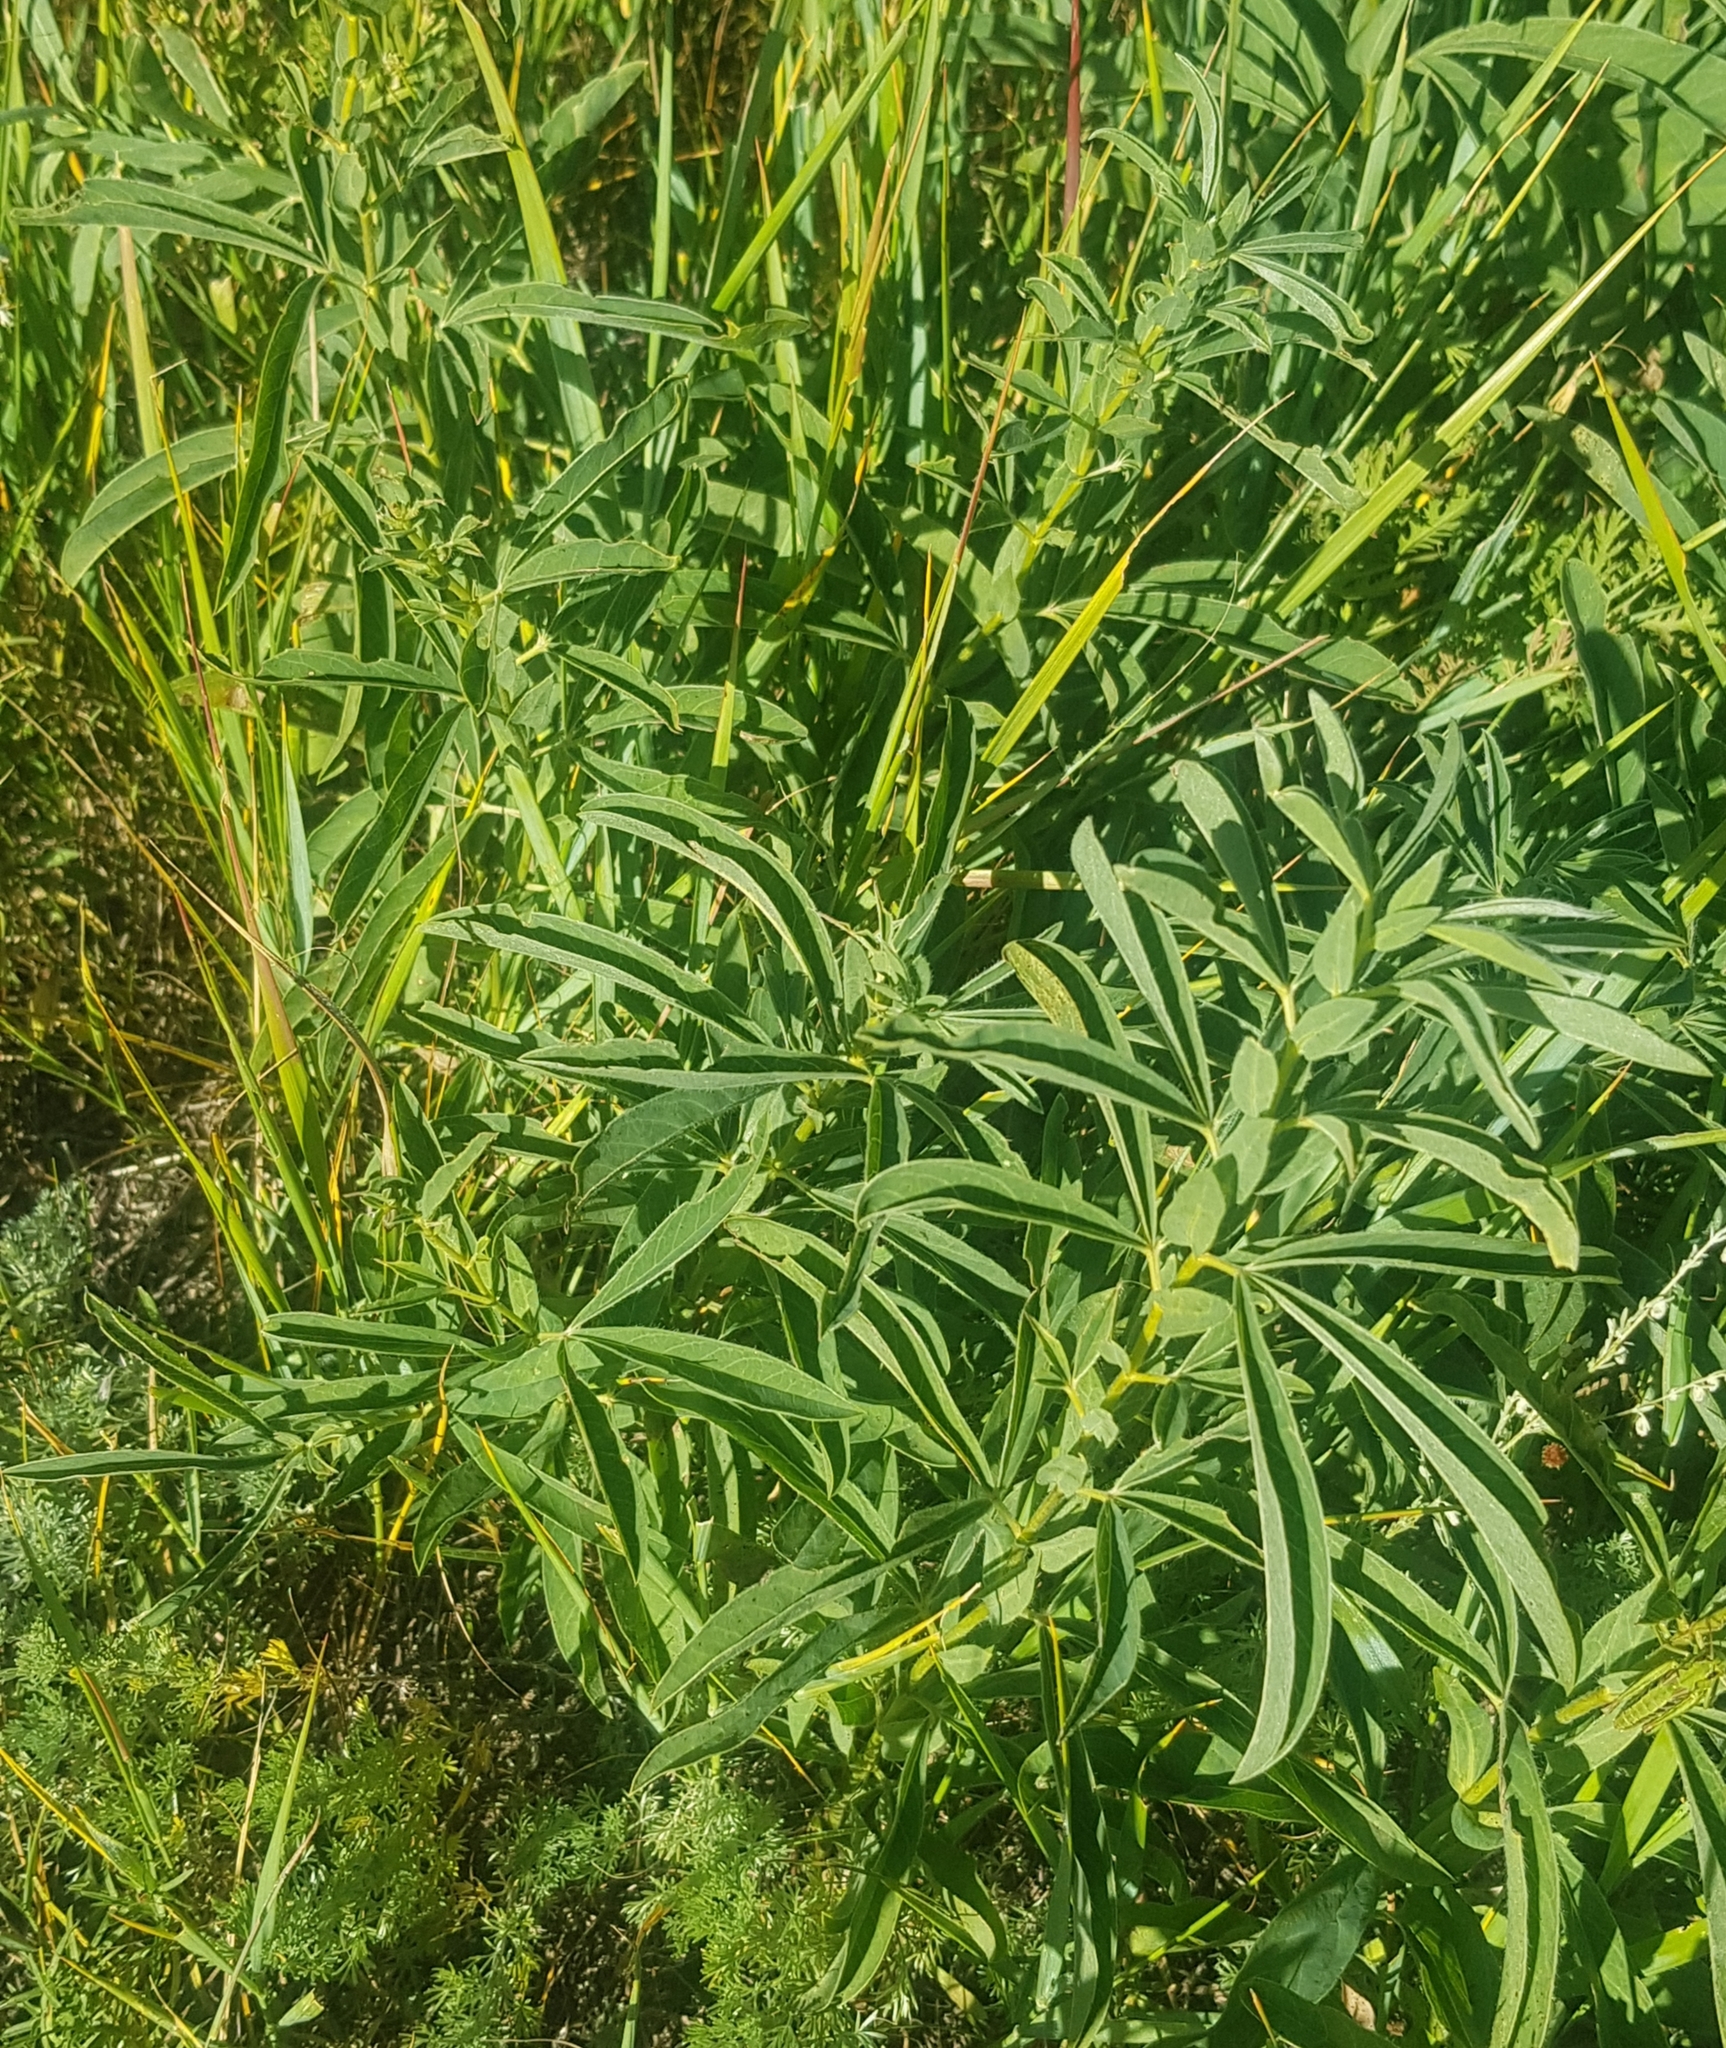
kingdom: Plantae
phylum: Tracheophyta
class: Magnoliopsida
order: Fabales
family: Fabaceae
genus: Thermopsis
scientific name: Thermopsis lanceolata
